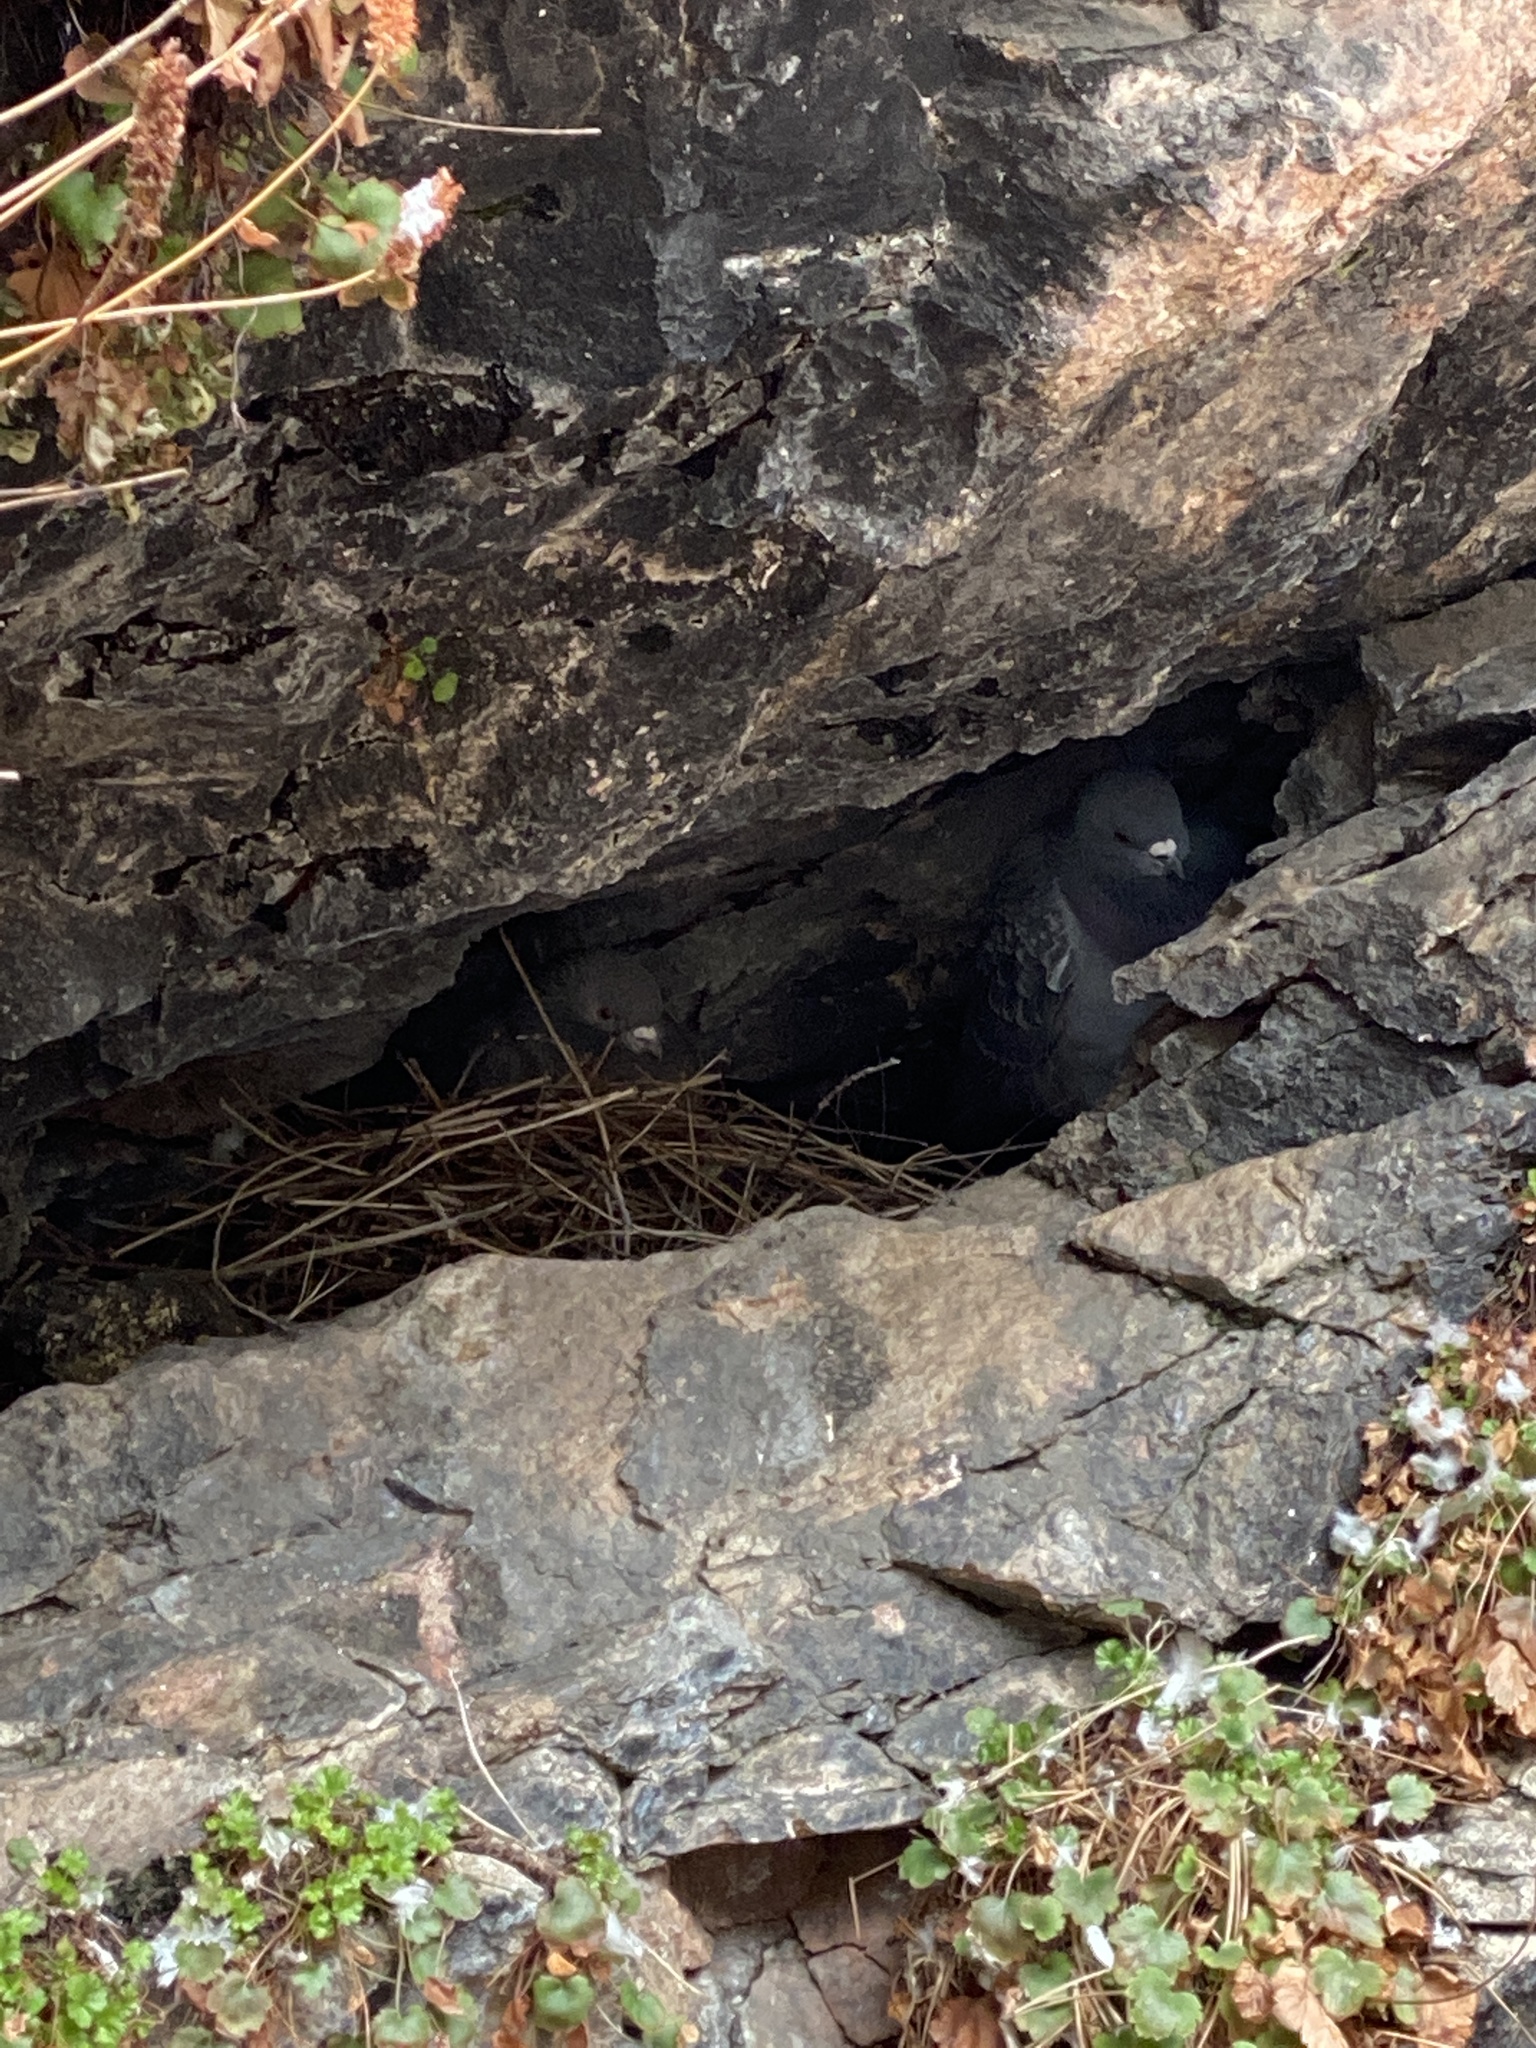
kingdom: Animalia
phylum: Chordata
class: Aves
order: Columbiformes
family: Columbidae
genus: Columba
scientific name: Columba livia
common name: Rock pigeon
